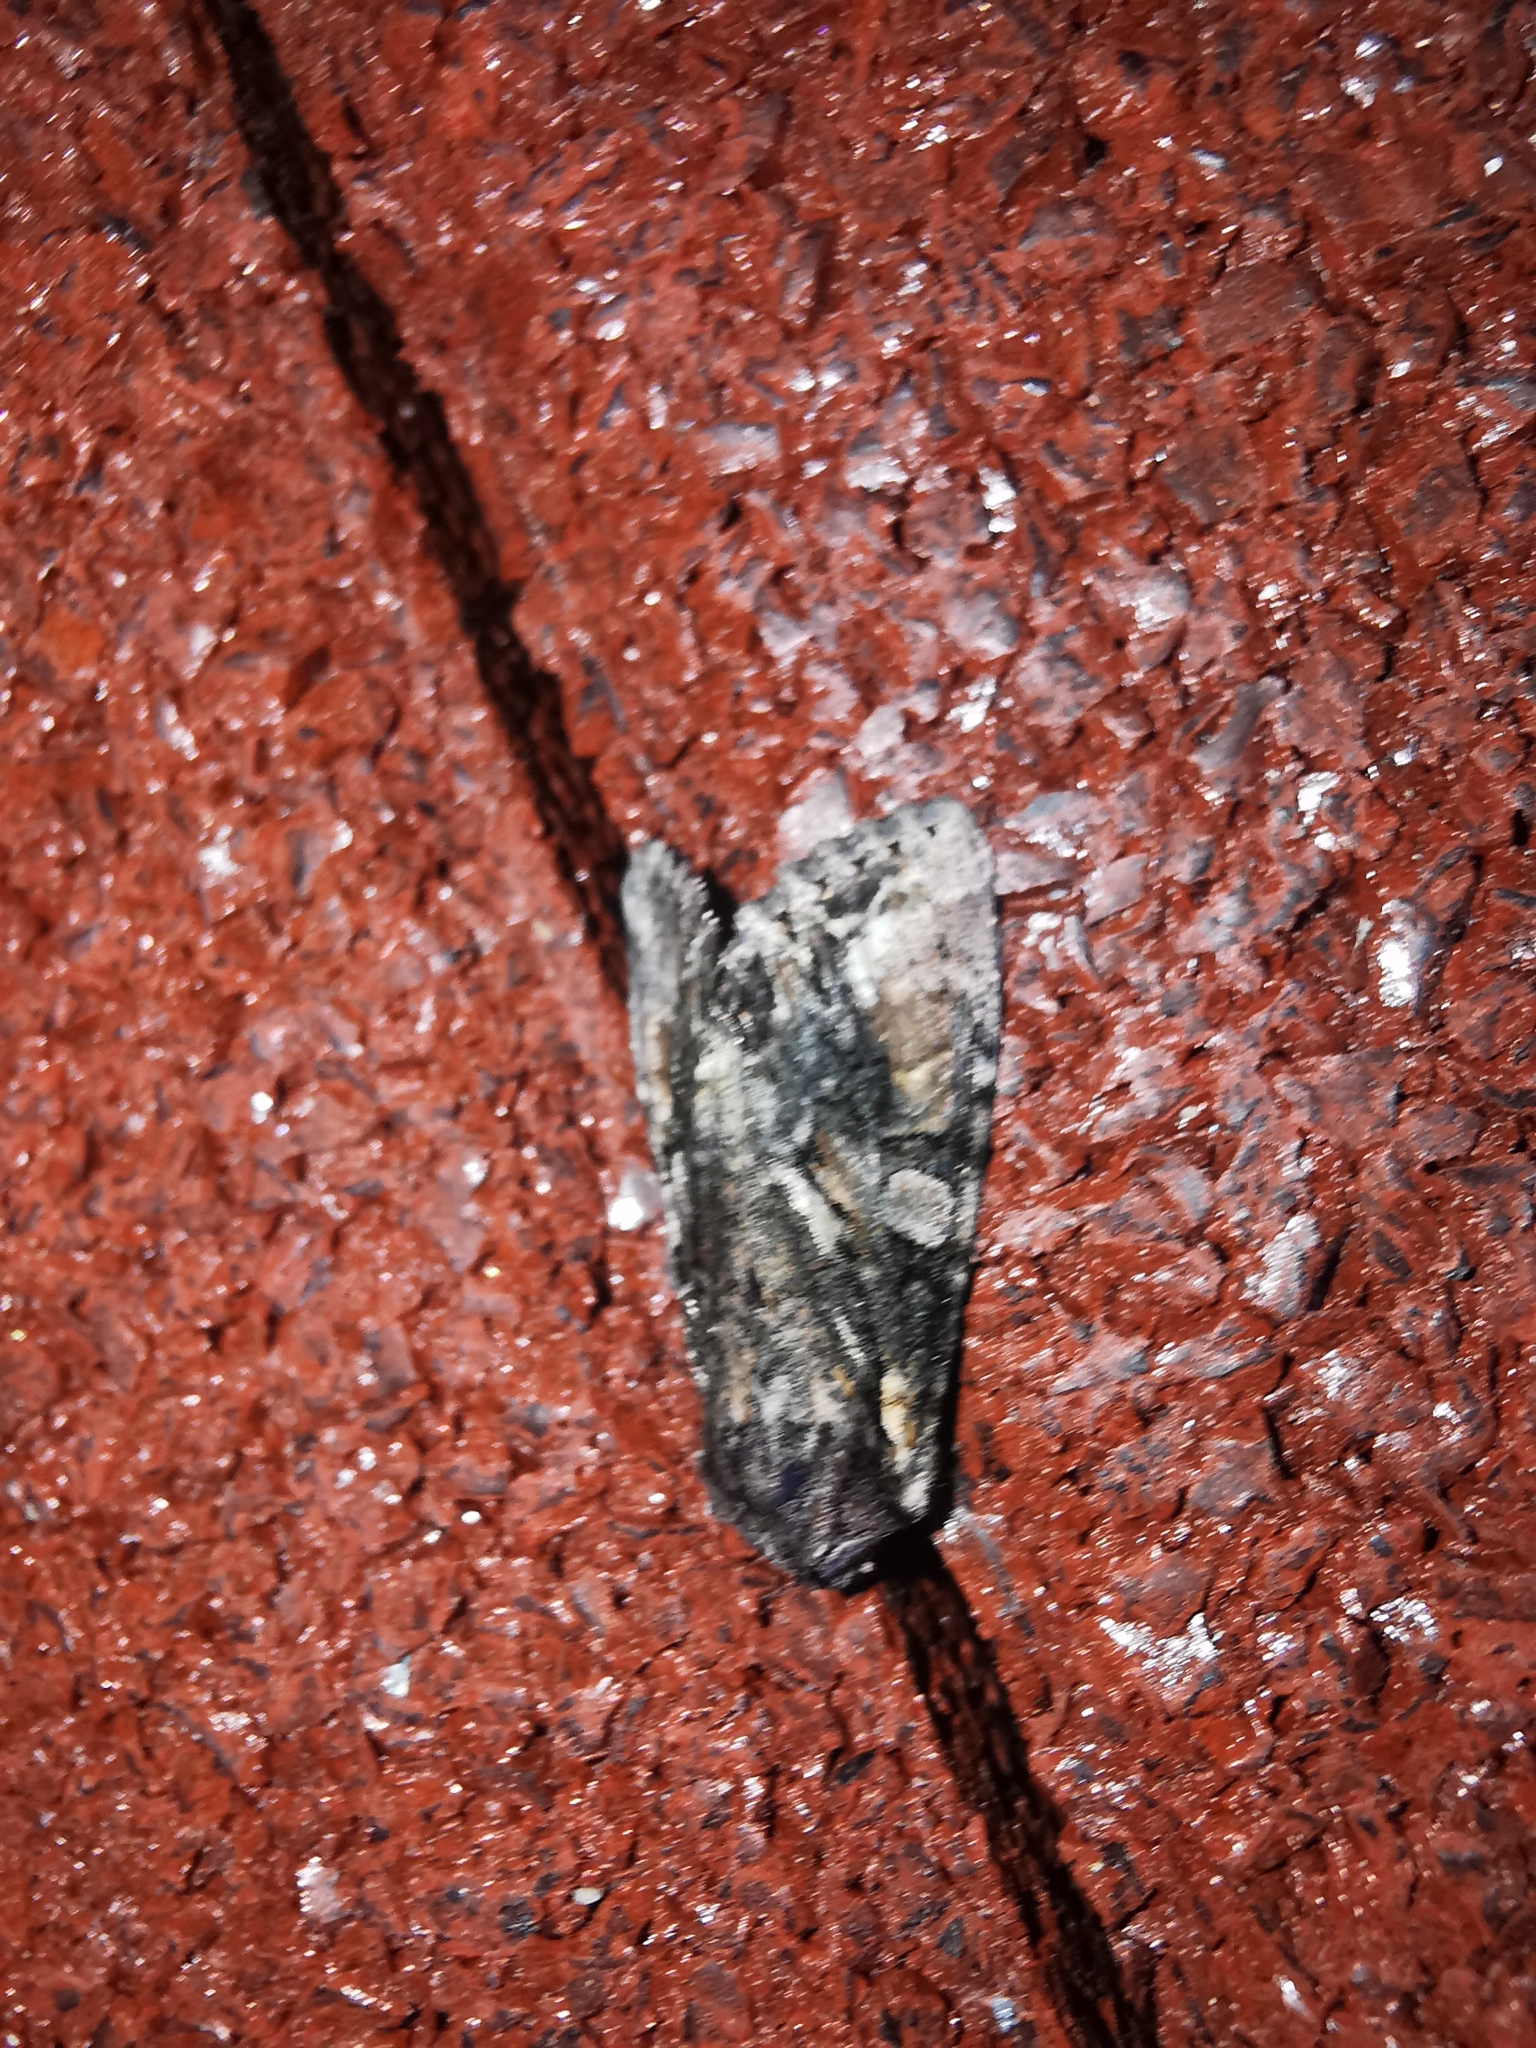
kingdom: Animalia
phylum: Arthropoda
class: Insecta
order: Lepidoptera
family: Noctuidae
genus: Lacanobia
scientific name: Lacanobia contigua
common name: Beautiful brocade
